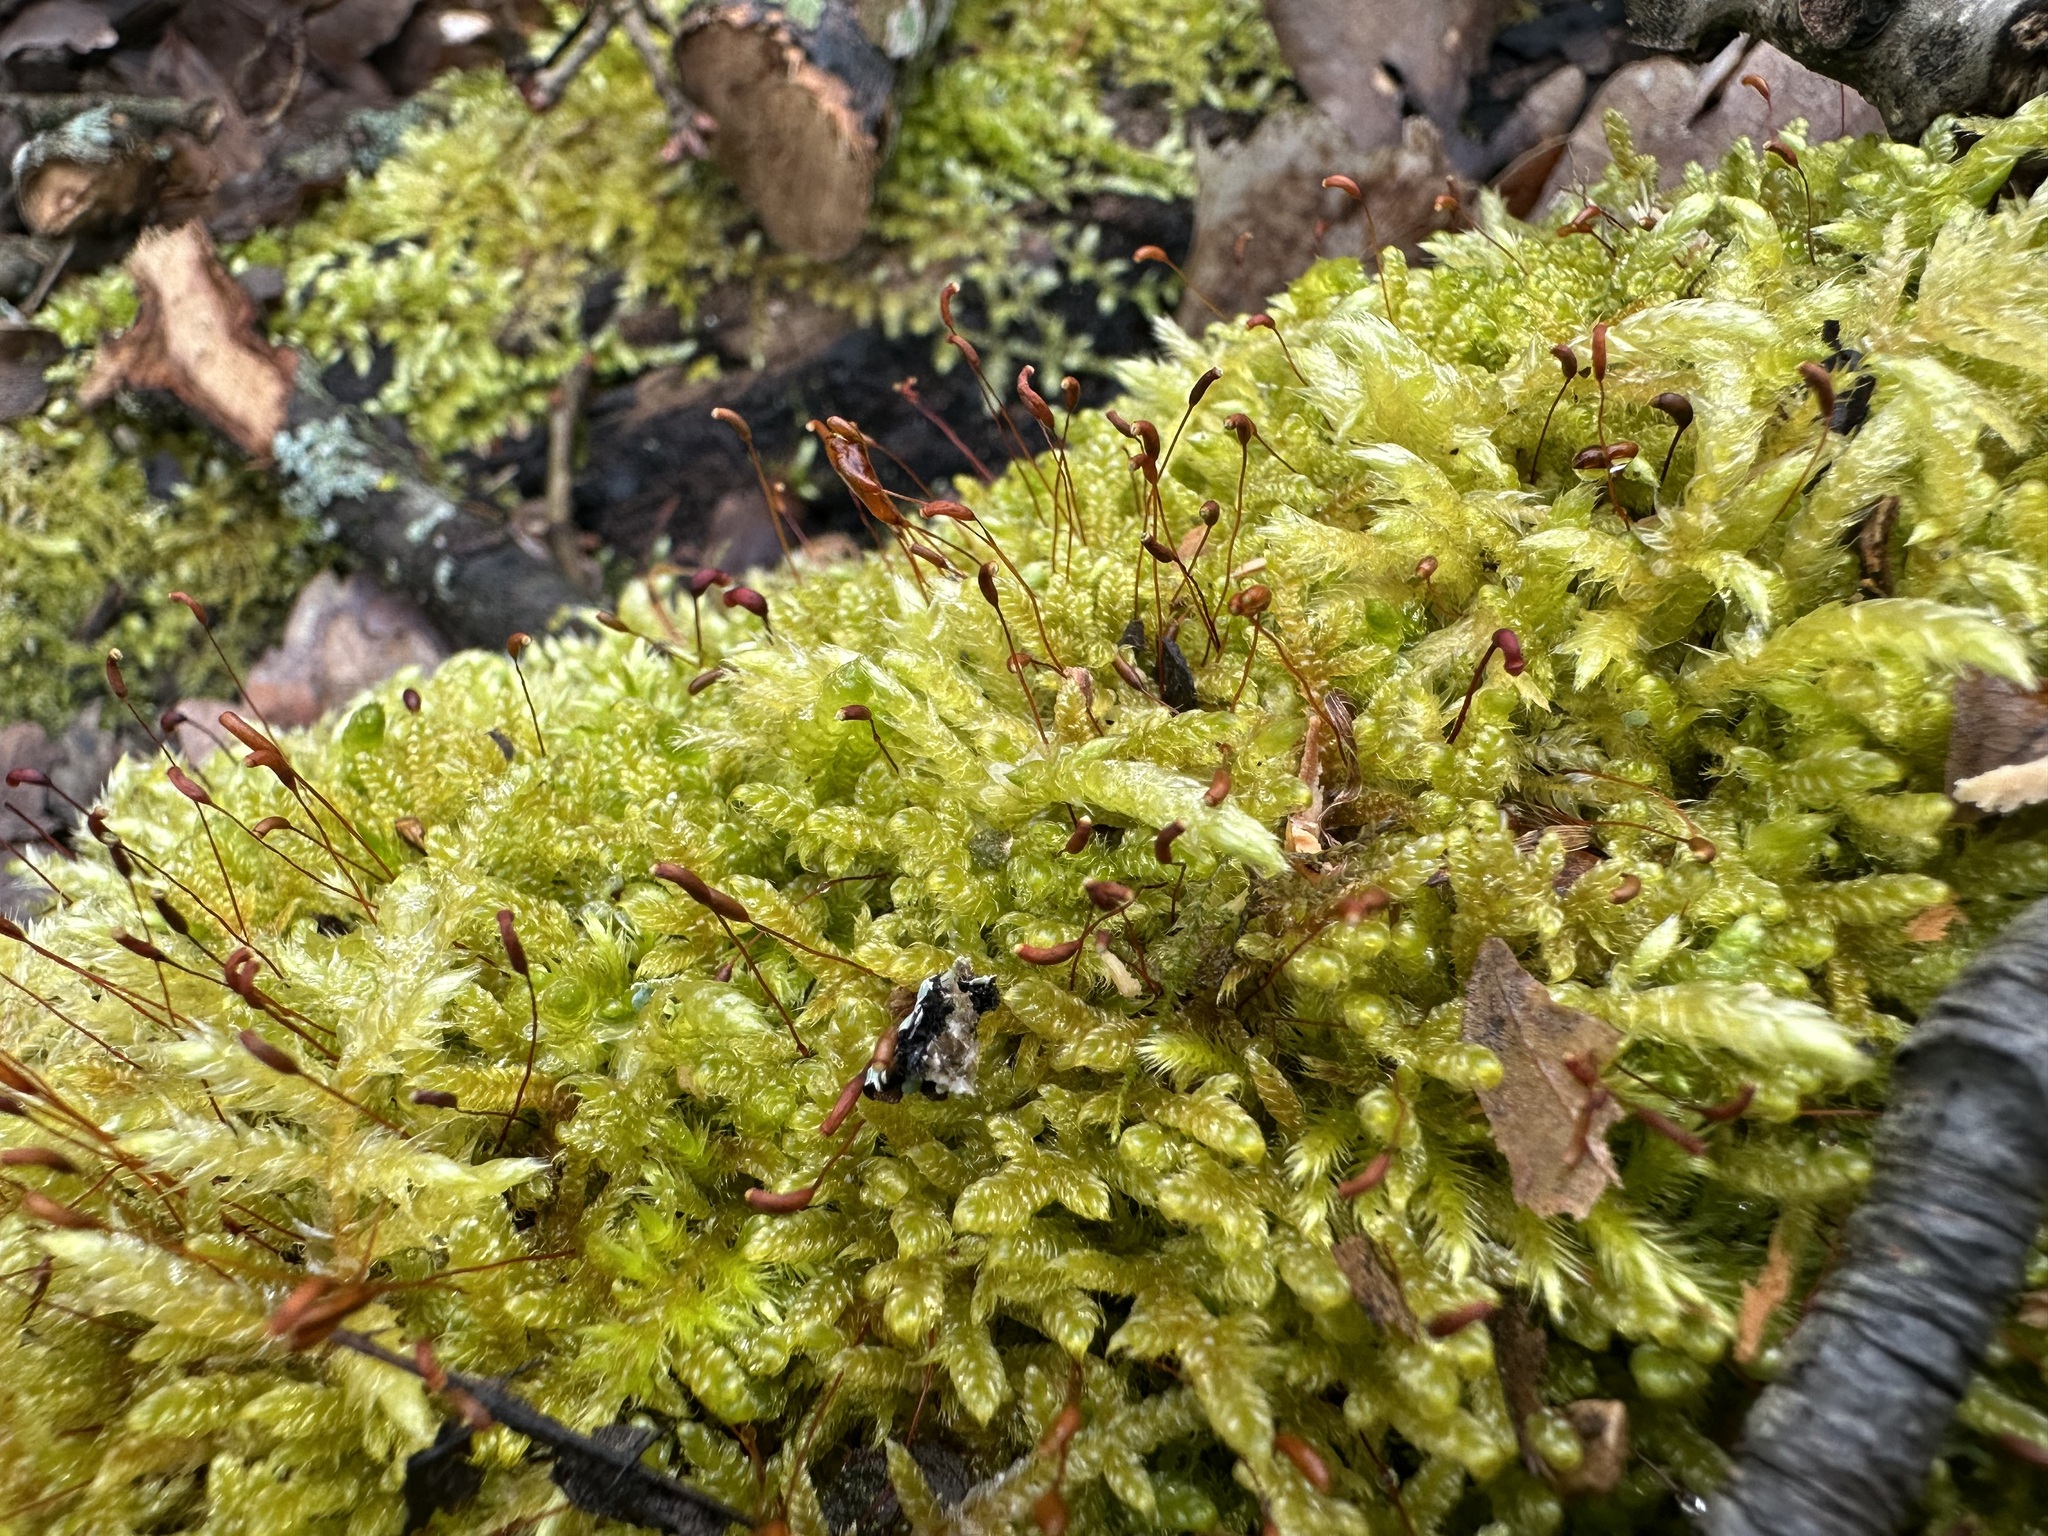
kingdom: Plantae
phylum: Bryophyta
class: Bryopsida
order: Hypnales
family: Hypnaceae
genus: Hypnum
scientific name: Hypnum cupressiforme
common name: Cypress-leaved plait-moss
